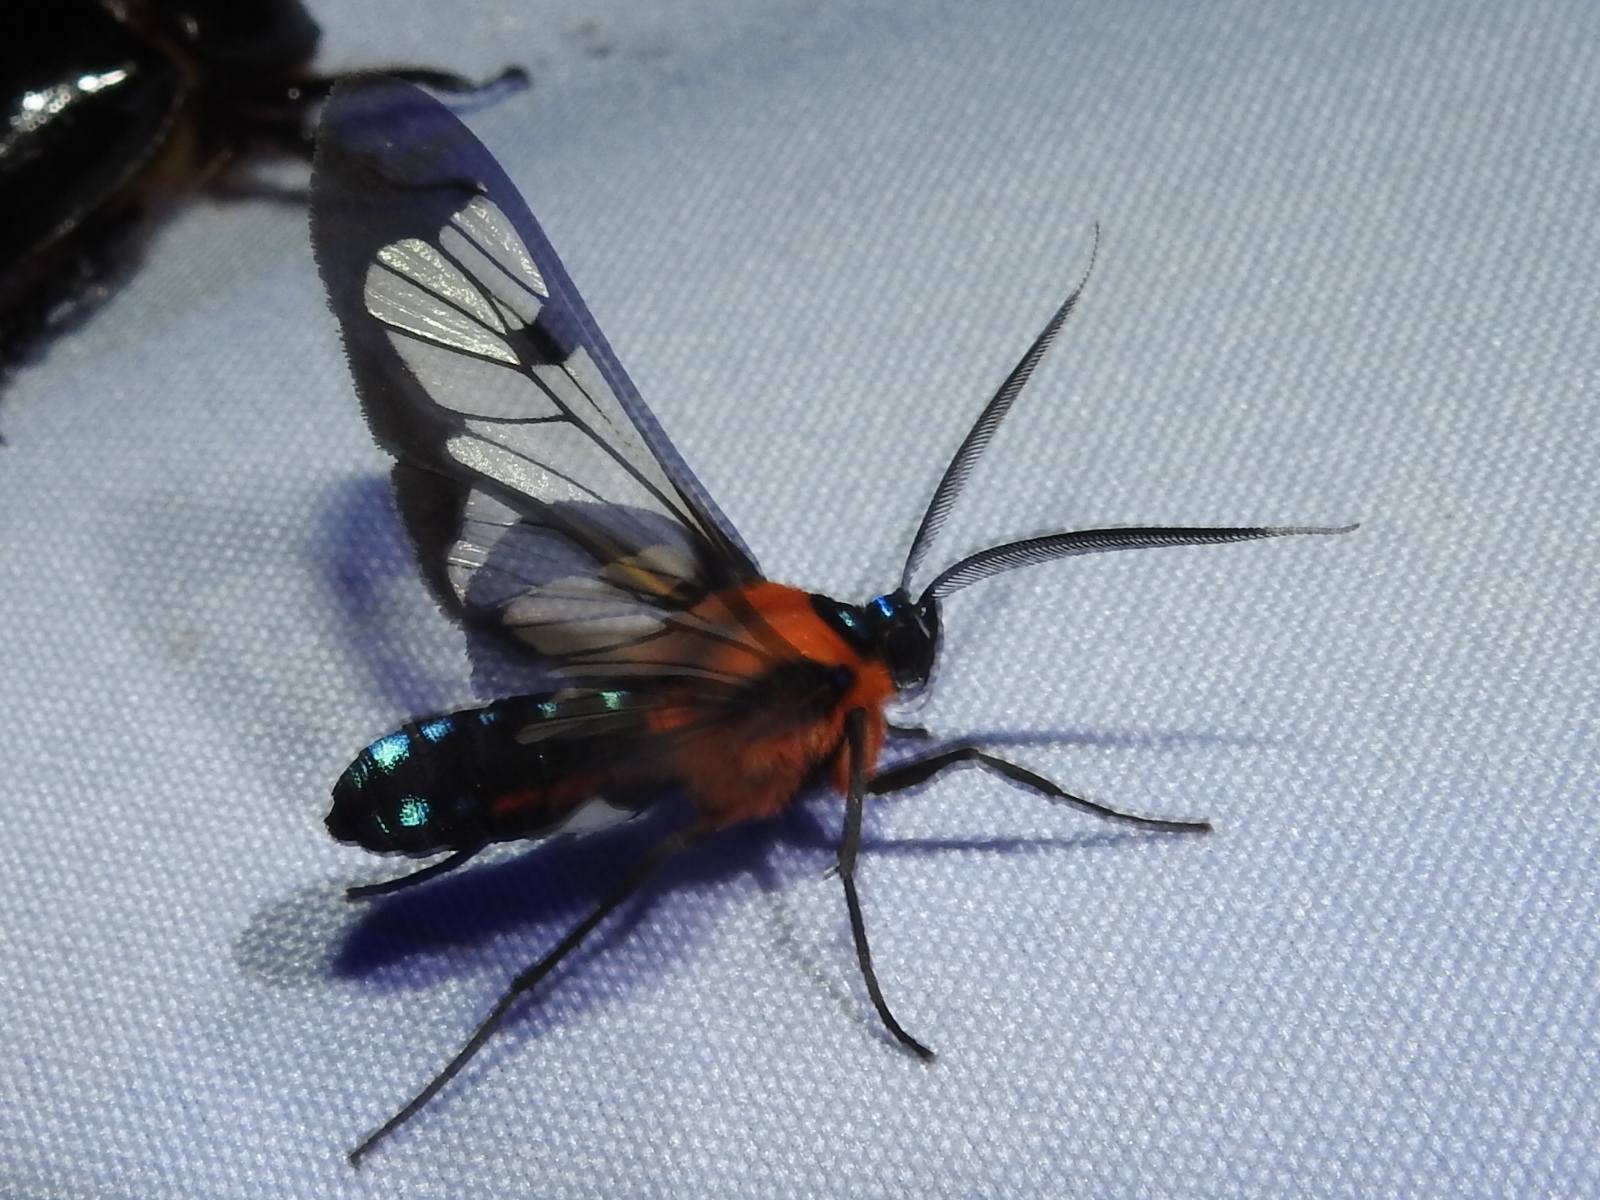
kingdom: Animalia
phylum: Arthropoda
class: Insecta
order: Lepidoptera
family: Erebidae
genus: Cosmosoma
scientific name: Cosmosoma impar
